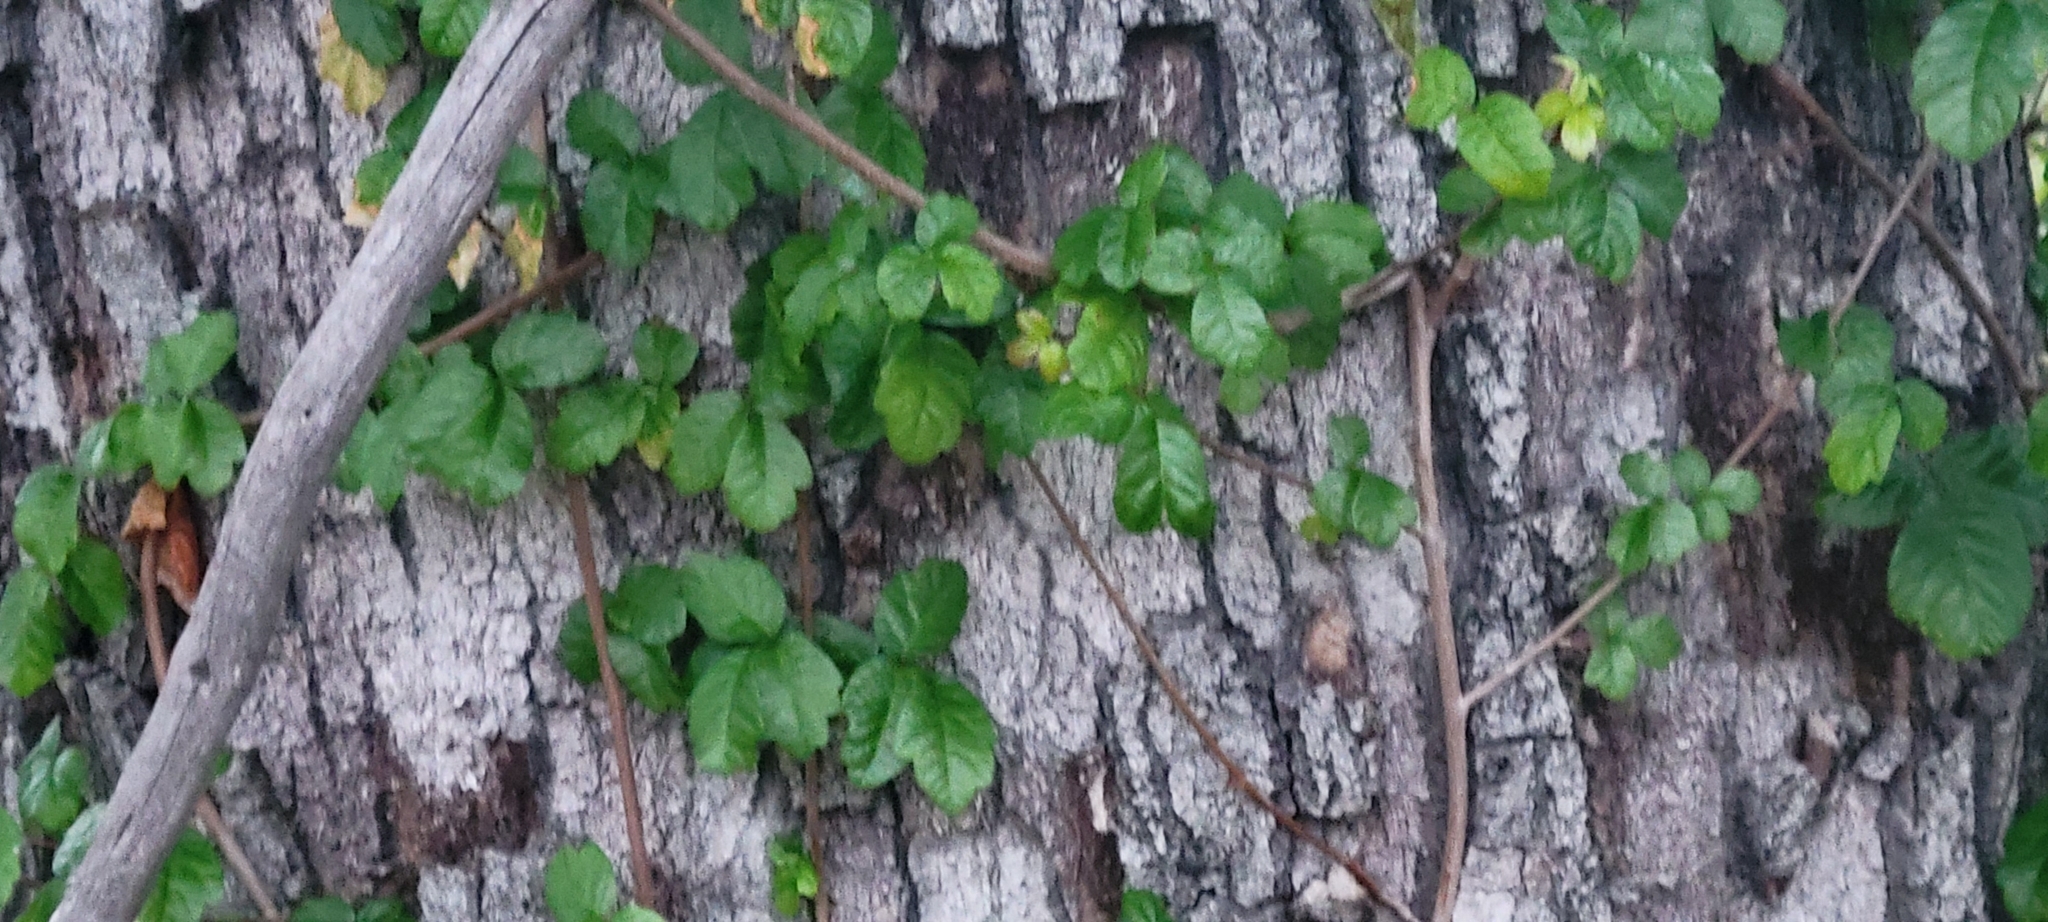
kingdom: Plantae
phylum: Tracheophyta
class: Magnoliopsida
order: Sapindales
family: Anacardiaceae
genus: Toxicodendron
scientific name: Toxicodendron diversilobum
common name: Pacific poison-oak
